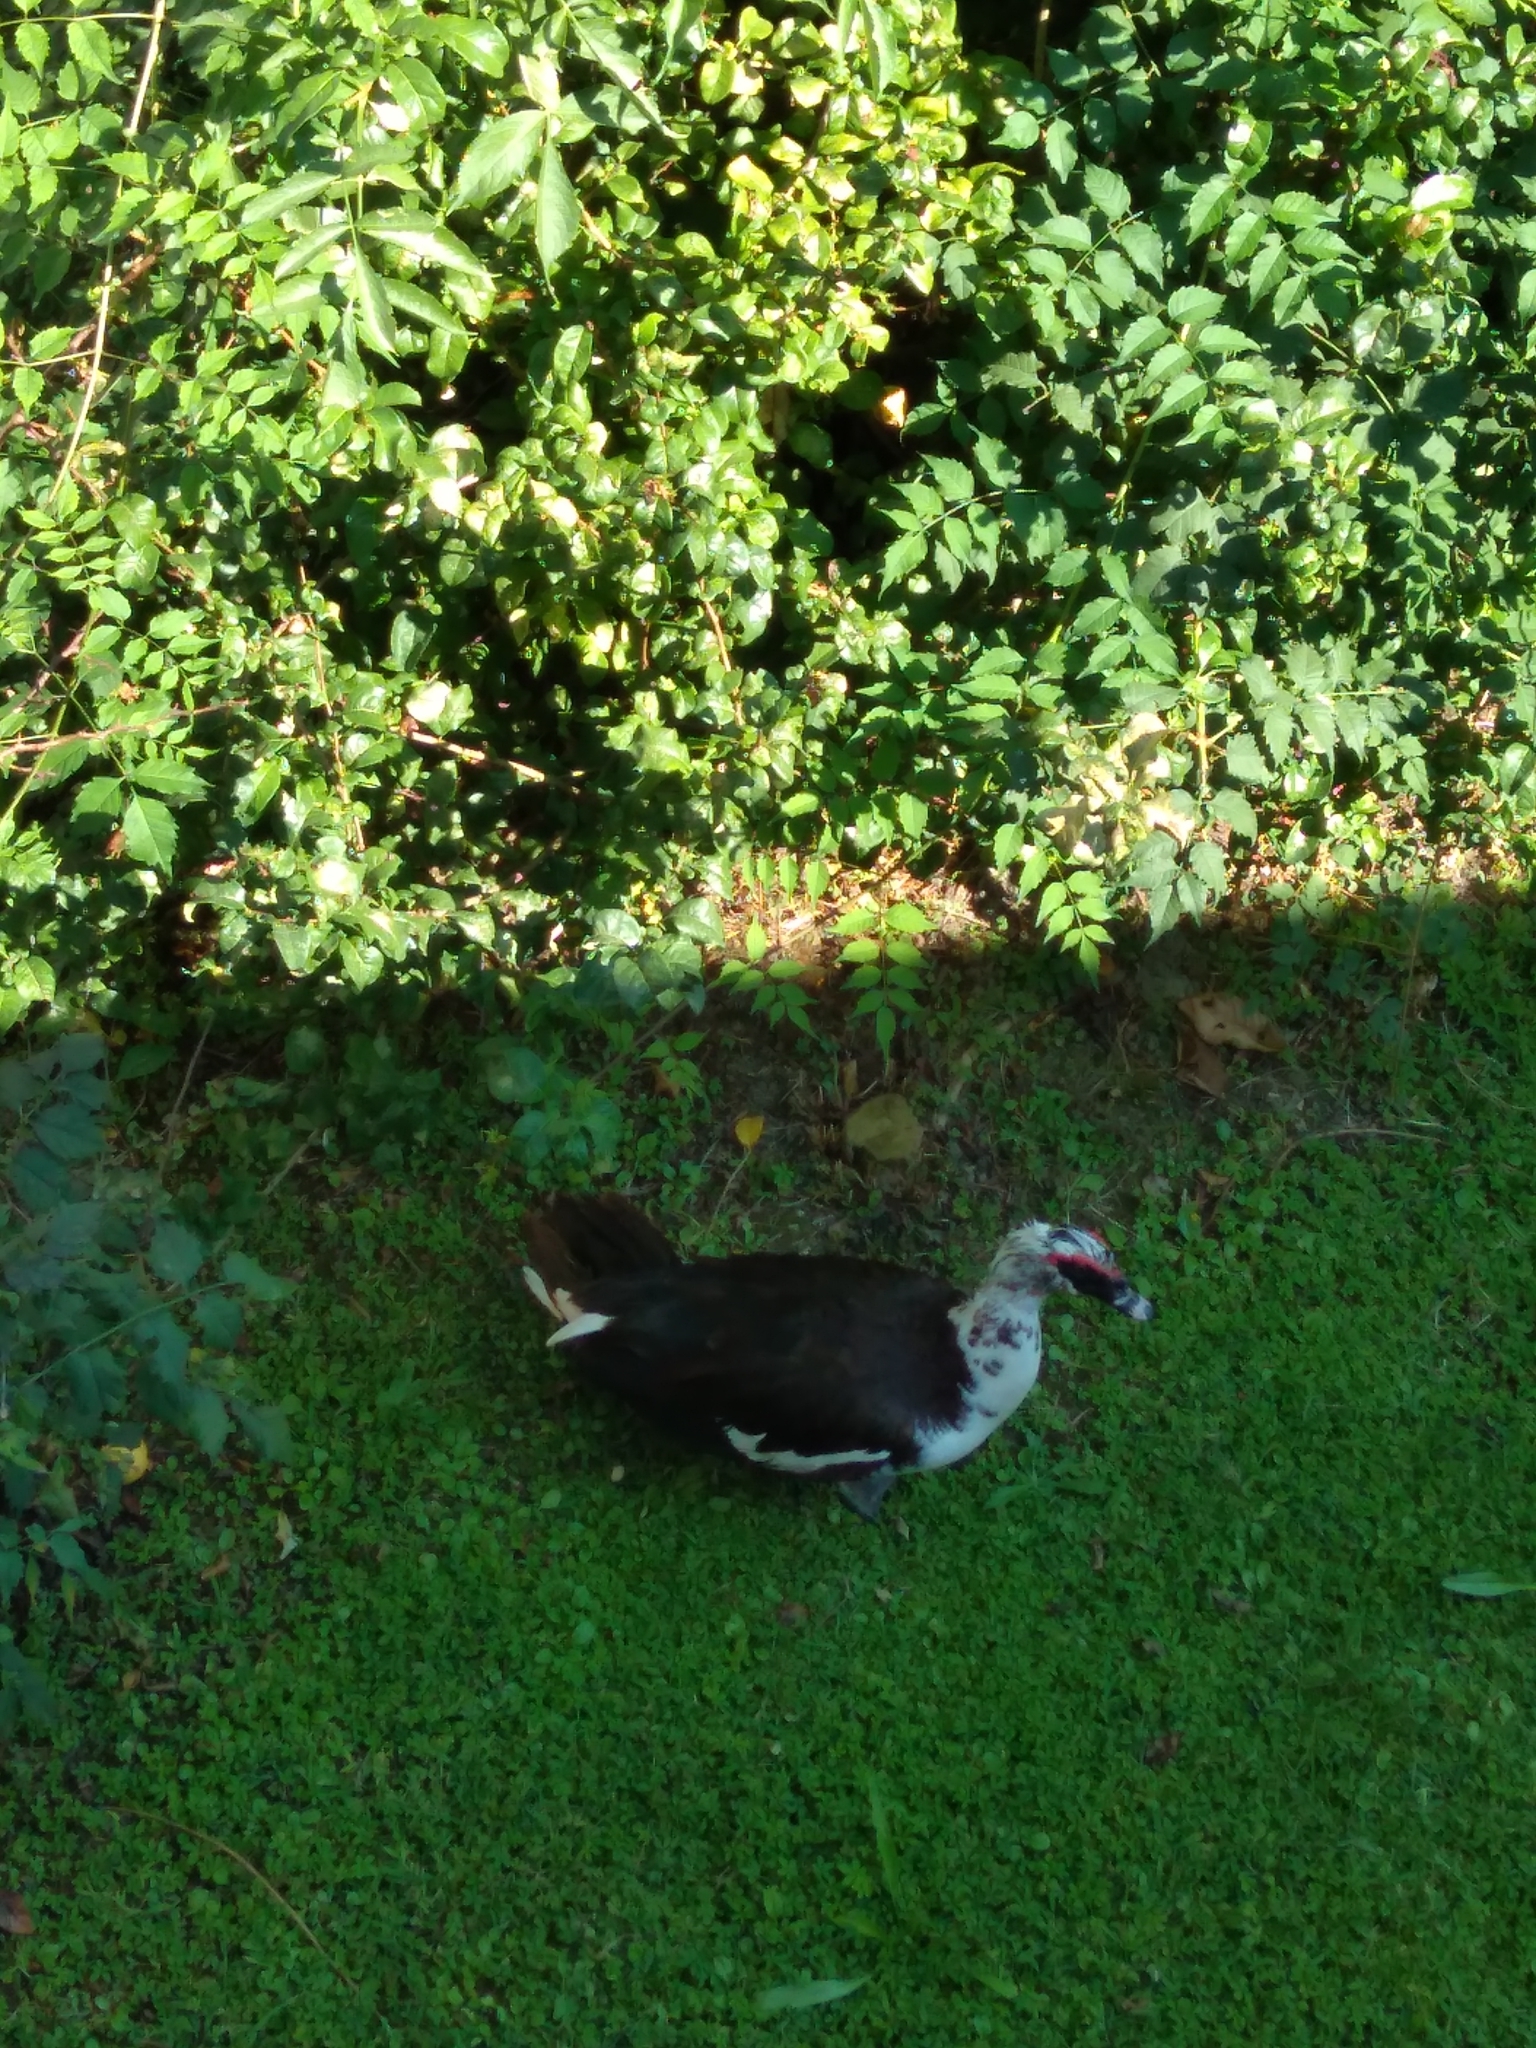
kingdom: Animalia
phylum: Chordata
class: Aves
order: Anseriformes
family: Anatidae
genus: Cairina
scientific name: Cairina moschata
